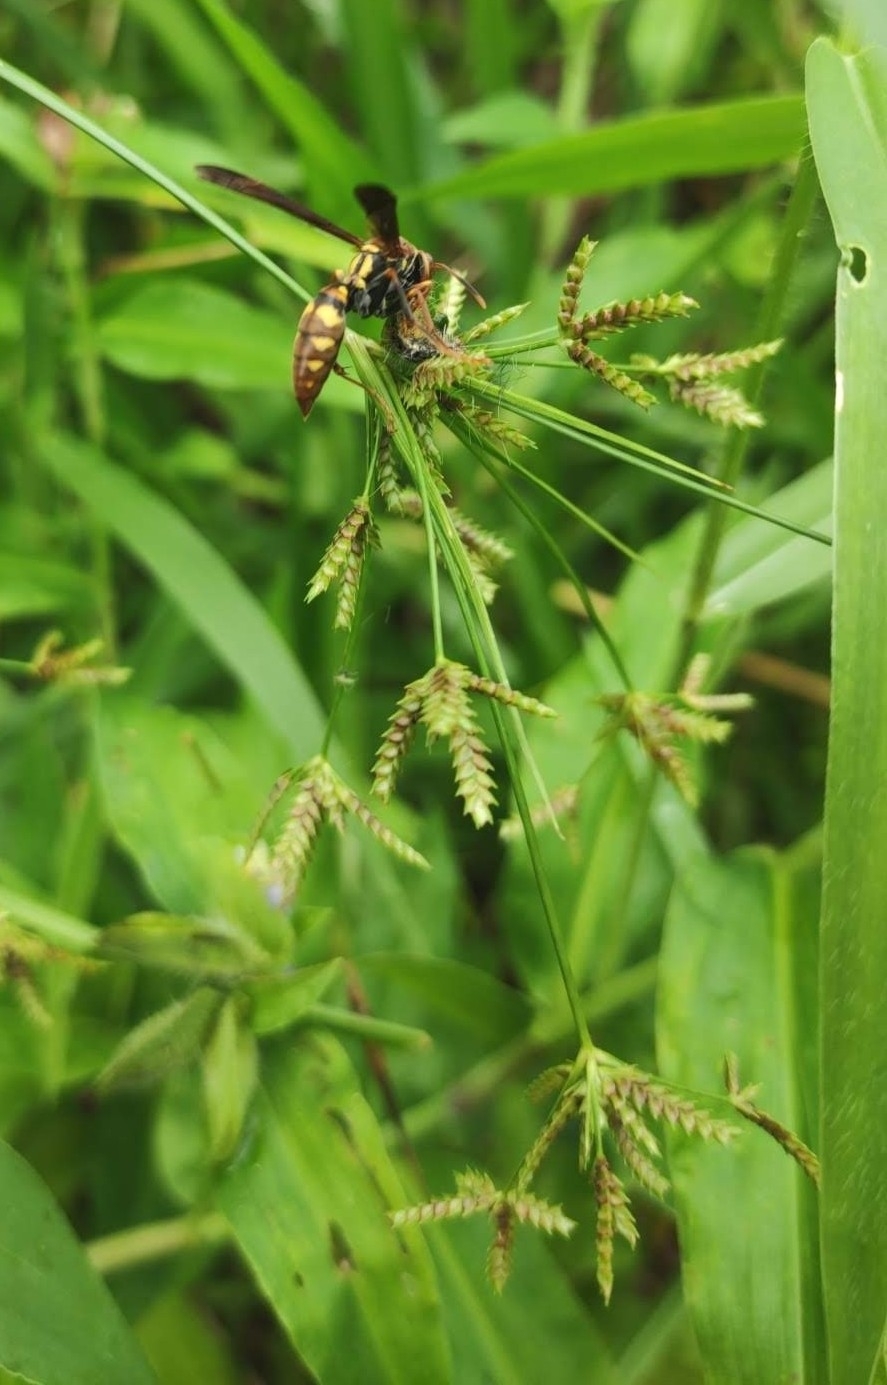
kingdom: Animalia
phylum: Arthropoda
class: Insecta
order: Hymenoptera
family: Eumenidae
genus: Polistes
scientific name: Polistes versicolor
